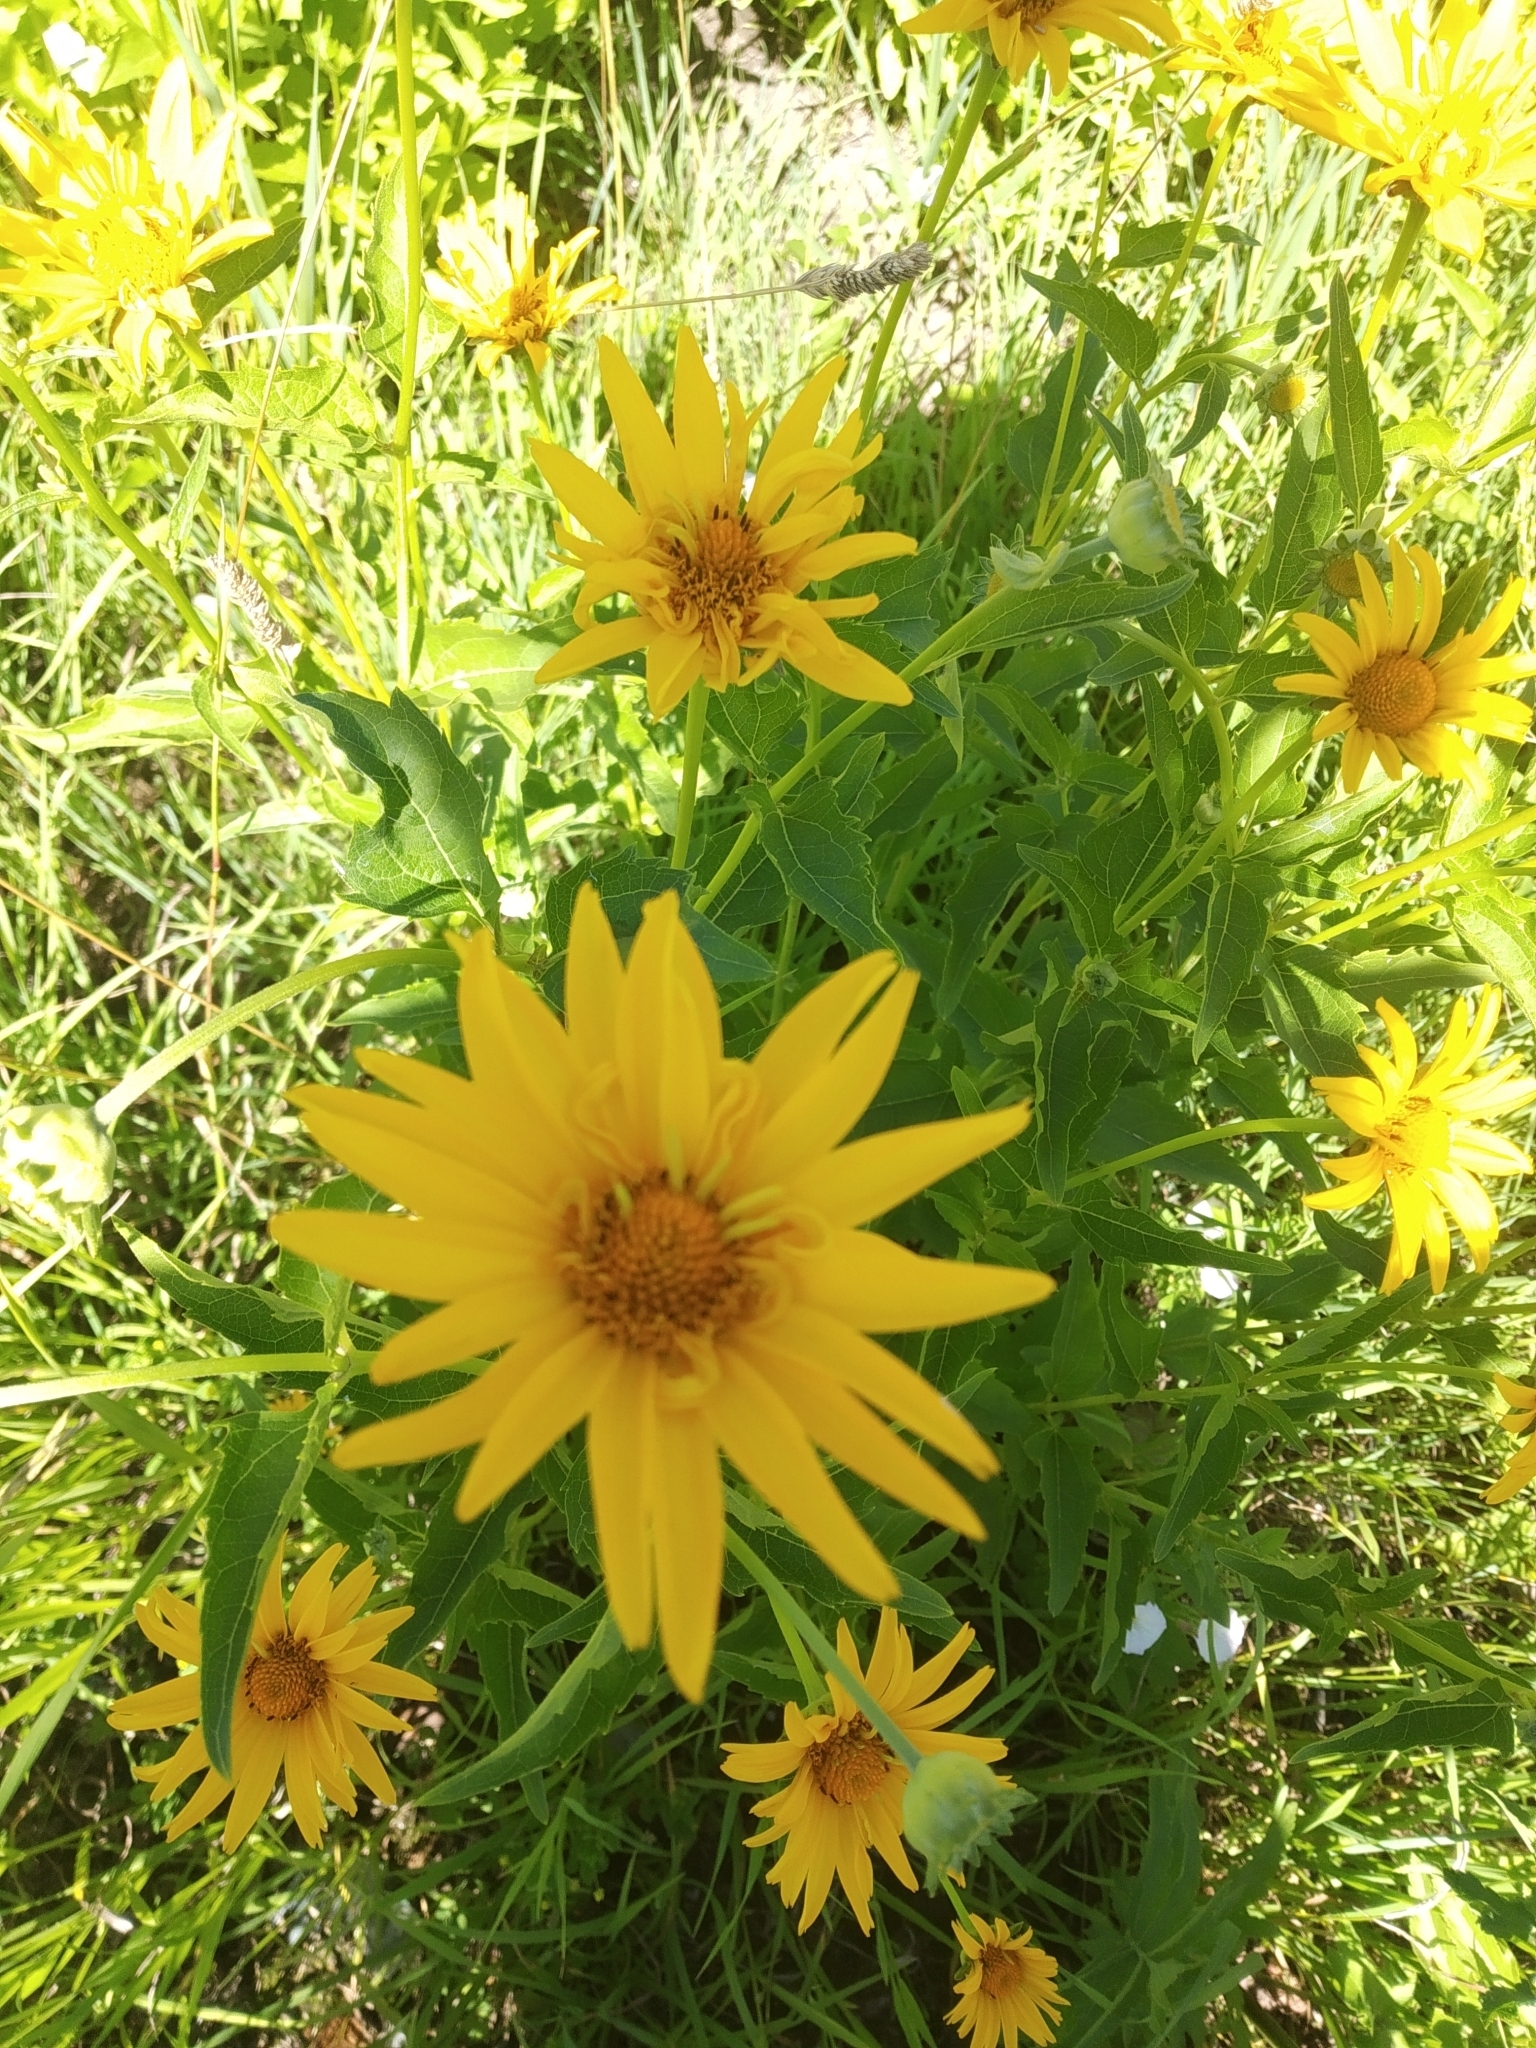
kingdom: Plantae
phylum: Tracheophyta
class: Magnoliopsida
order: Asterales
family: Asteraceae
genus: Heliopsis
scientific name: Heliopsis helianthoides
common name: False sunflower
